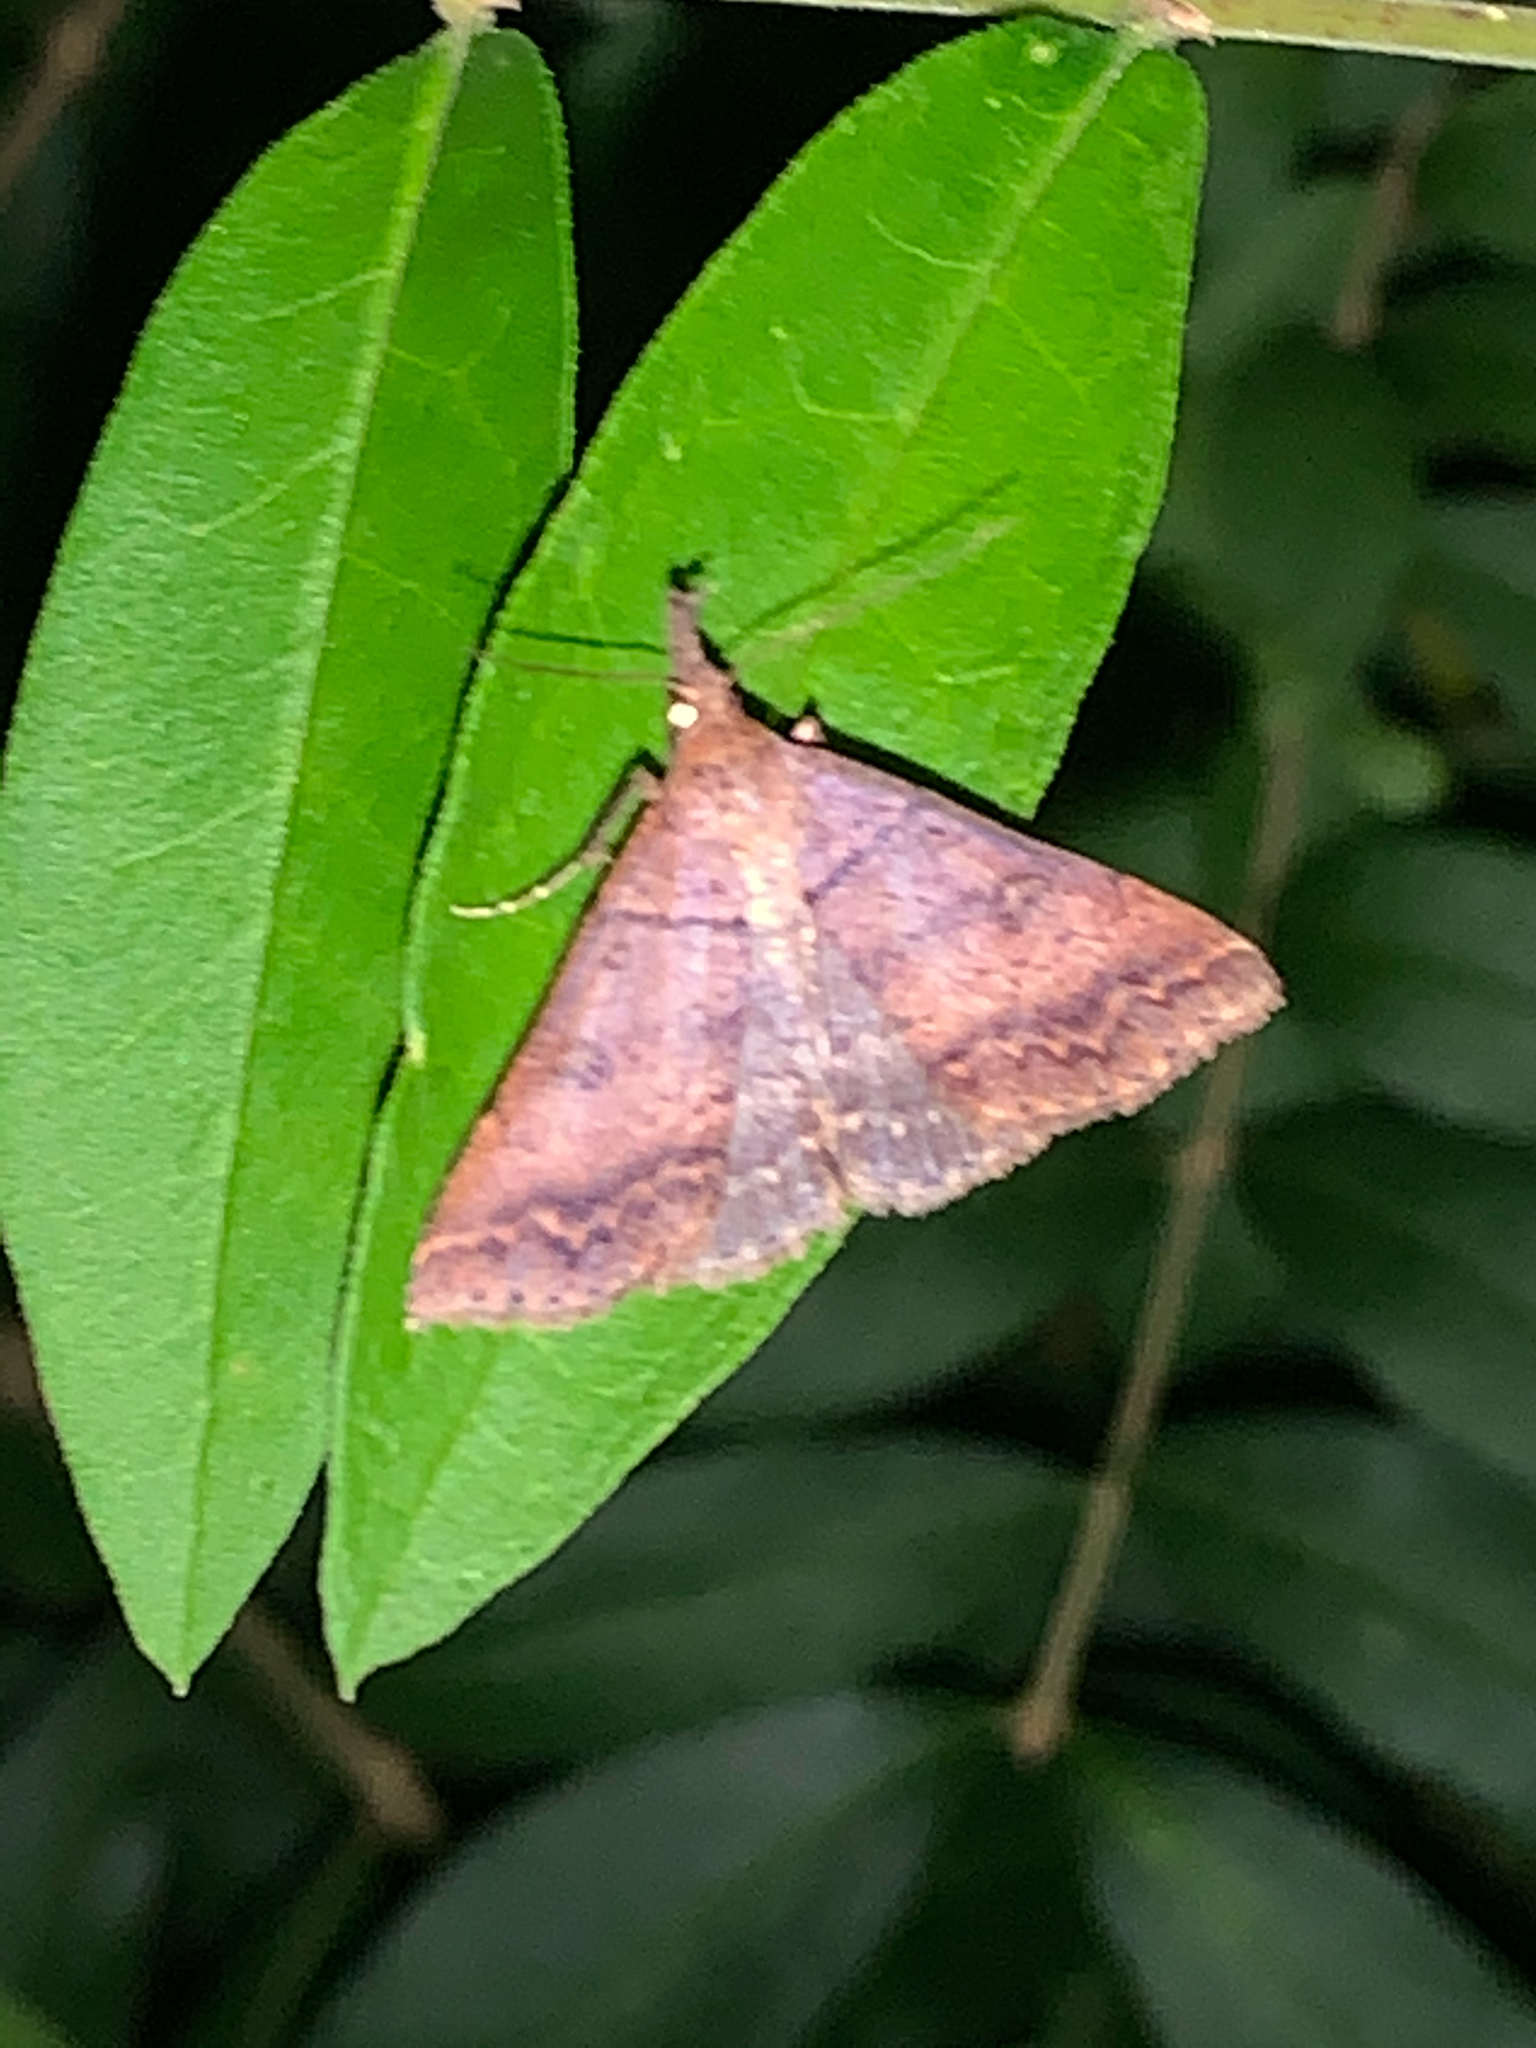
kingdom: Animalia
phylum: Arthropoda
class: Insecta
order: Lepidoptera
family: Erebidae
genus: Renia
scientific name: Renia nemoralis
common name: Chocolate renia moth
